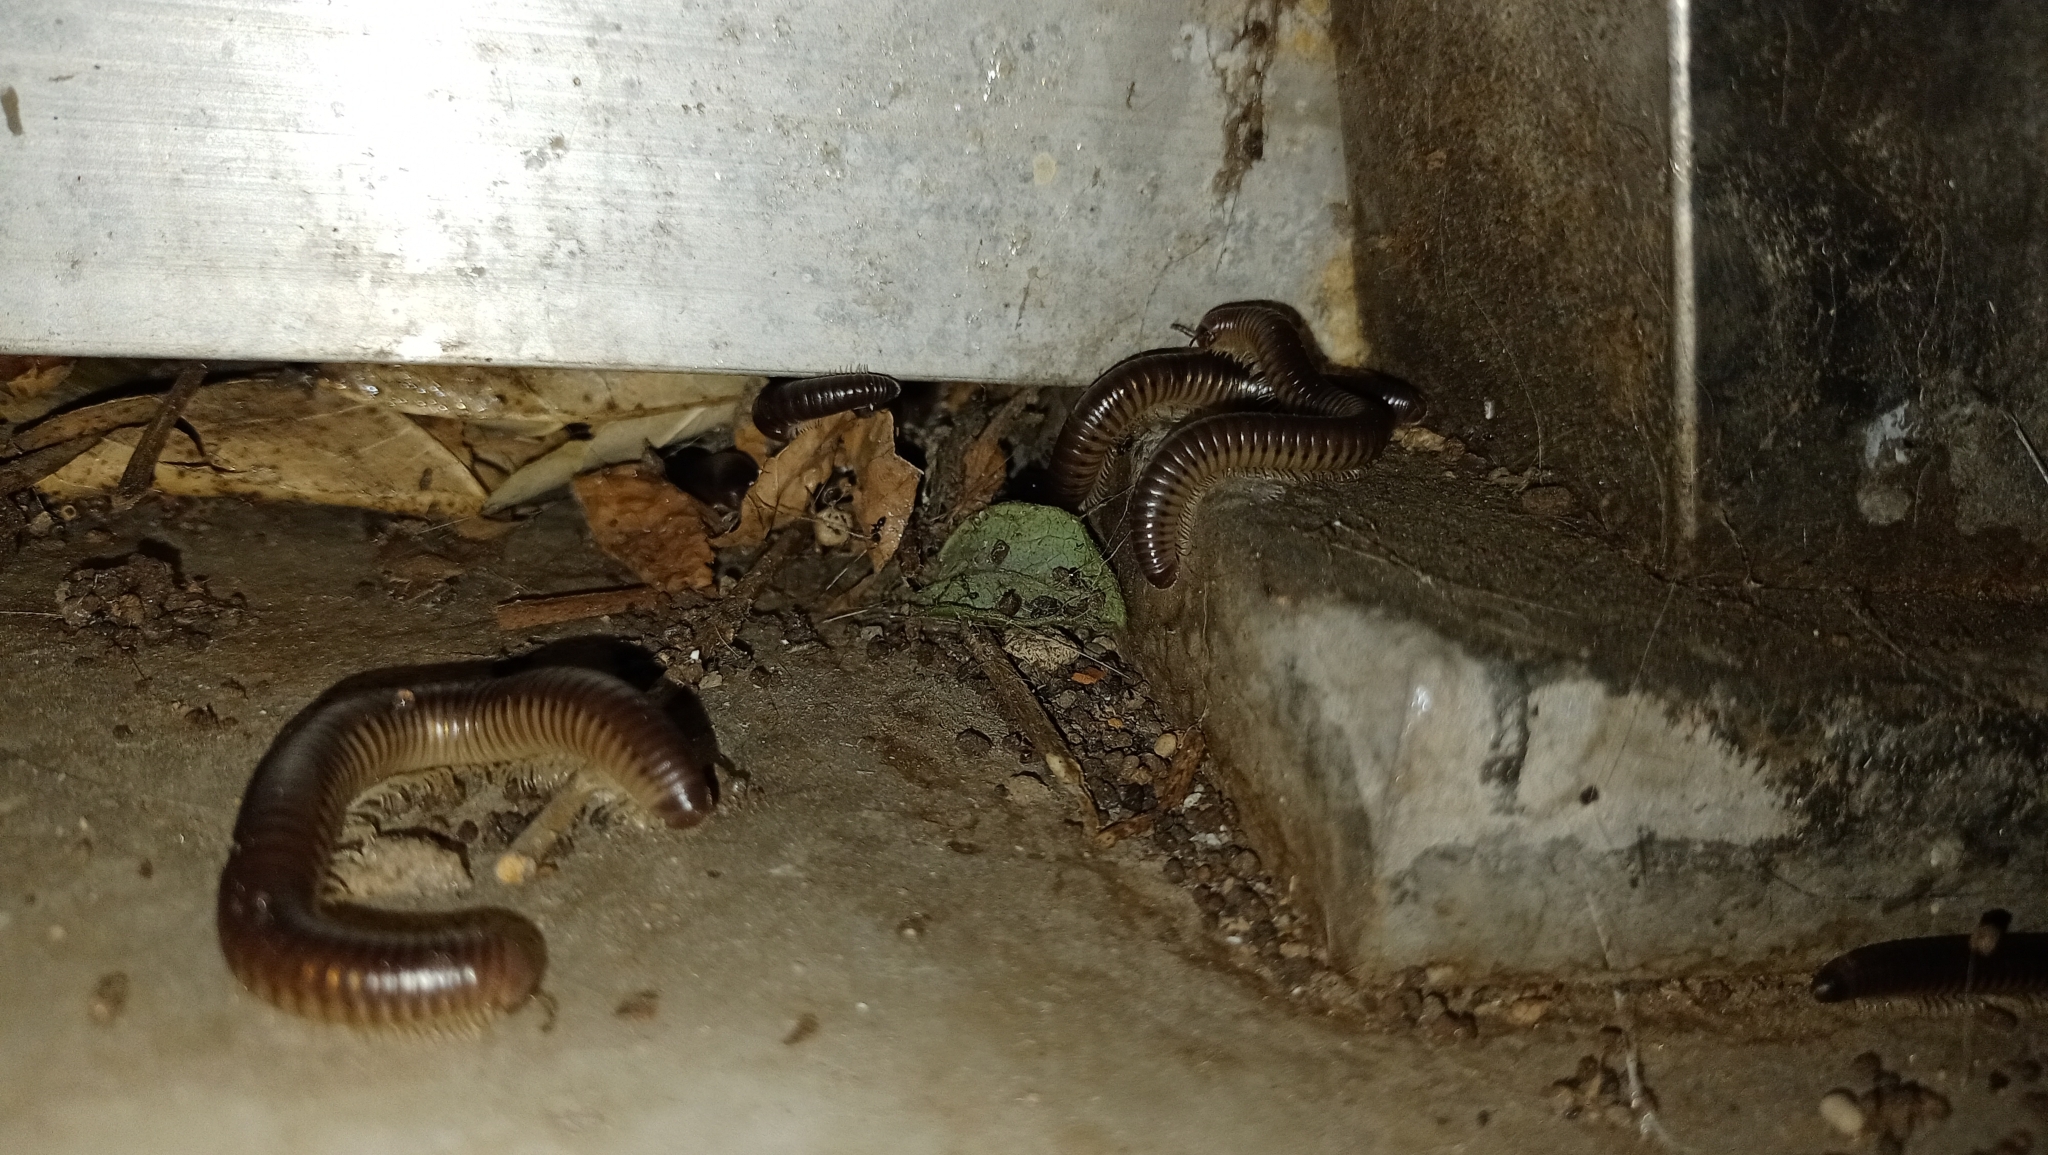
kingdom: Animalia
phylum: Arthropoda
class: Diplopoda
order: Julida
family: Julidae
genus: Pachyiulus
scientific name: Pachyiulus flavipes
